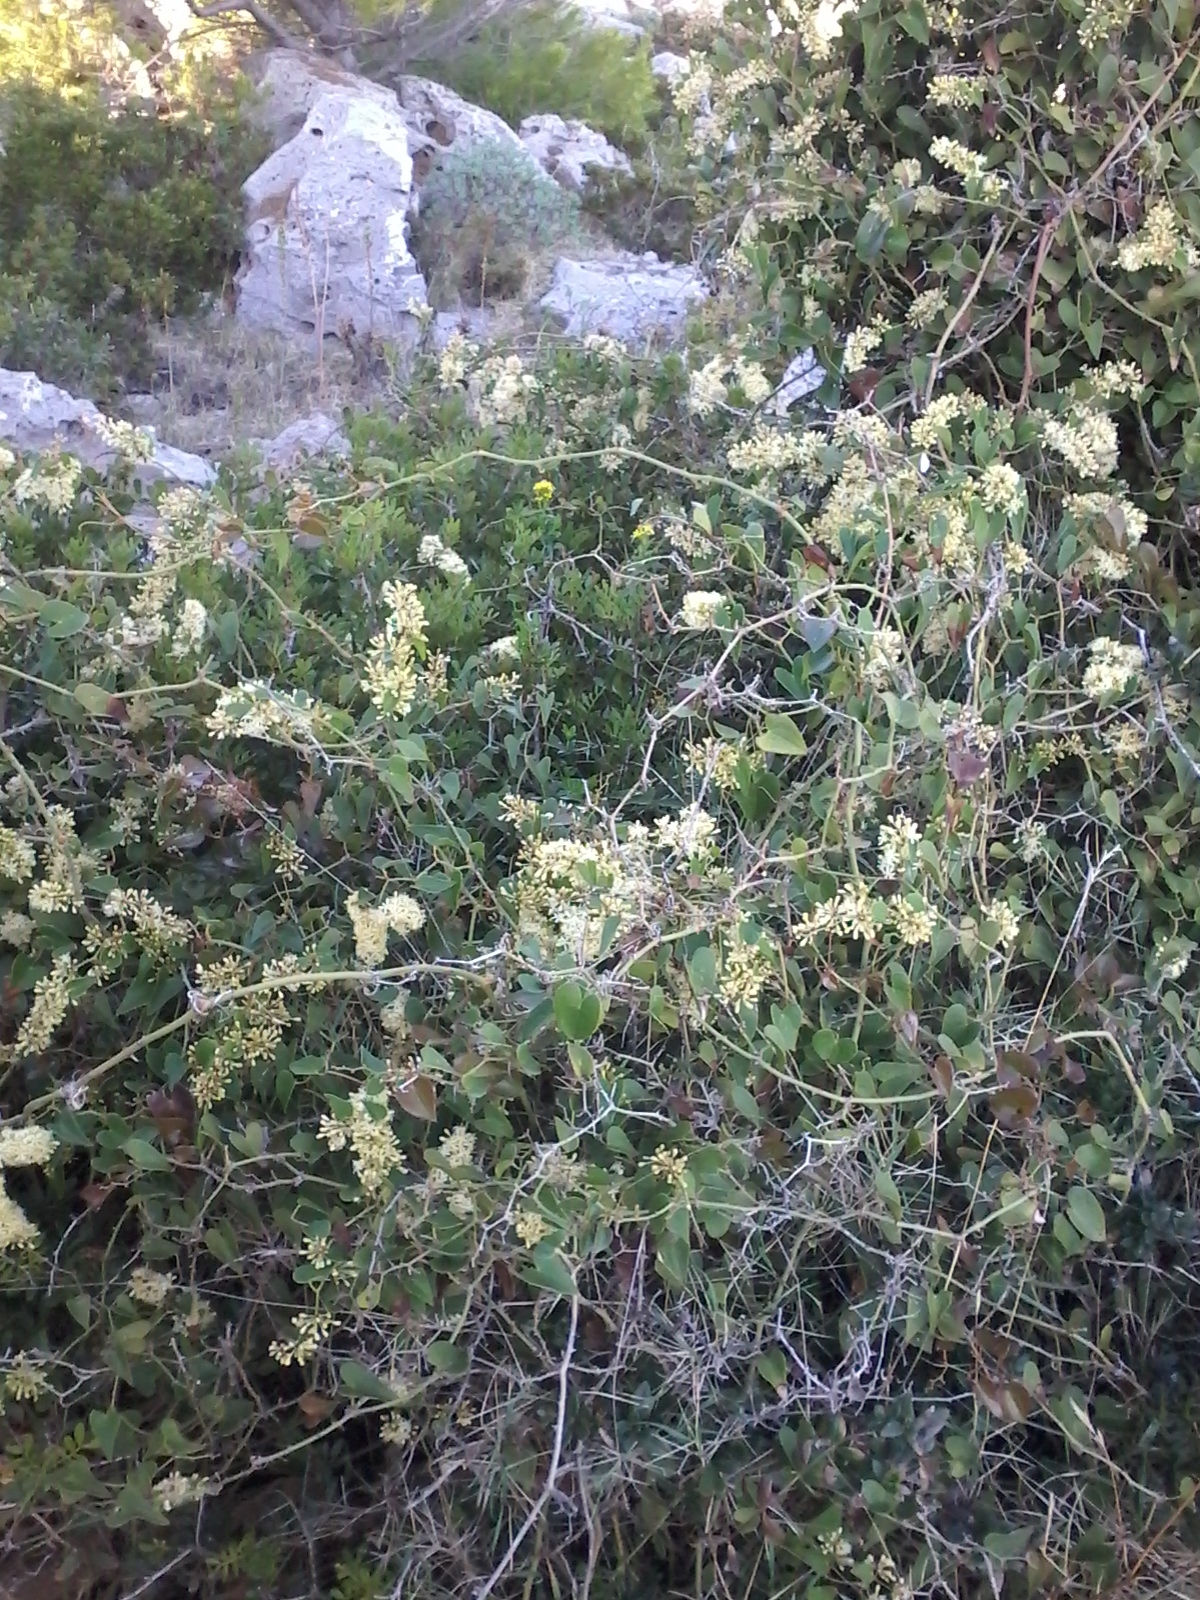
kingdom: Plantae
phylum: Tracheophyta
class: Liliopsida
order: Liliales
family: Smilacaceae
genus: Smilax
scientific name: Smilax aspera
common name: Common smilax
